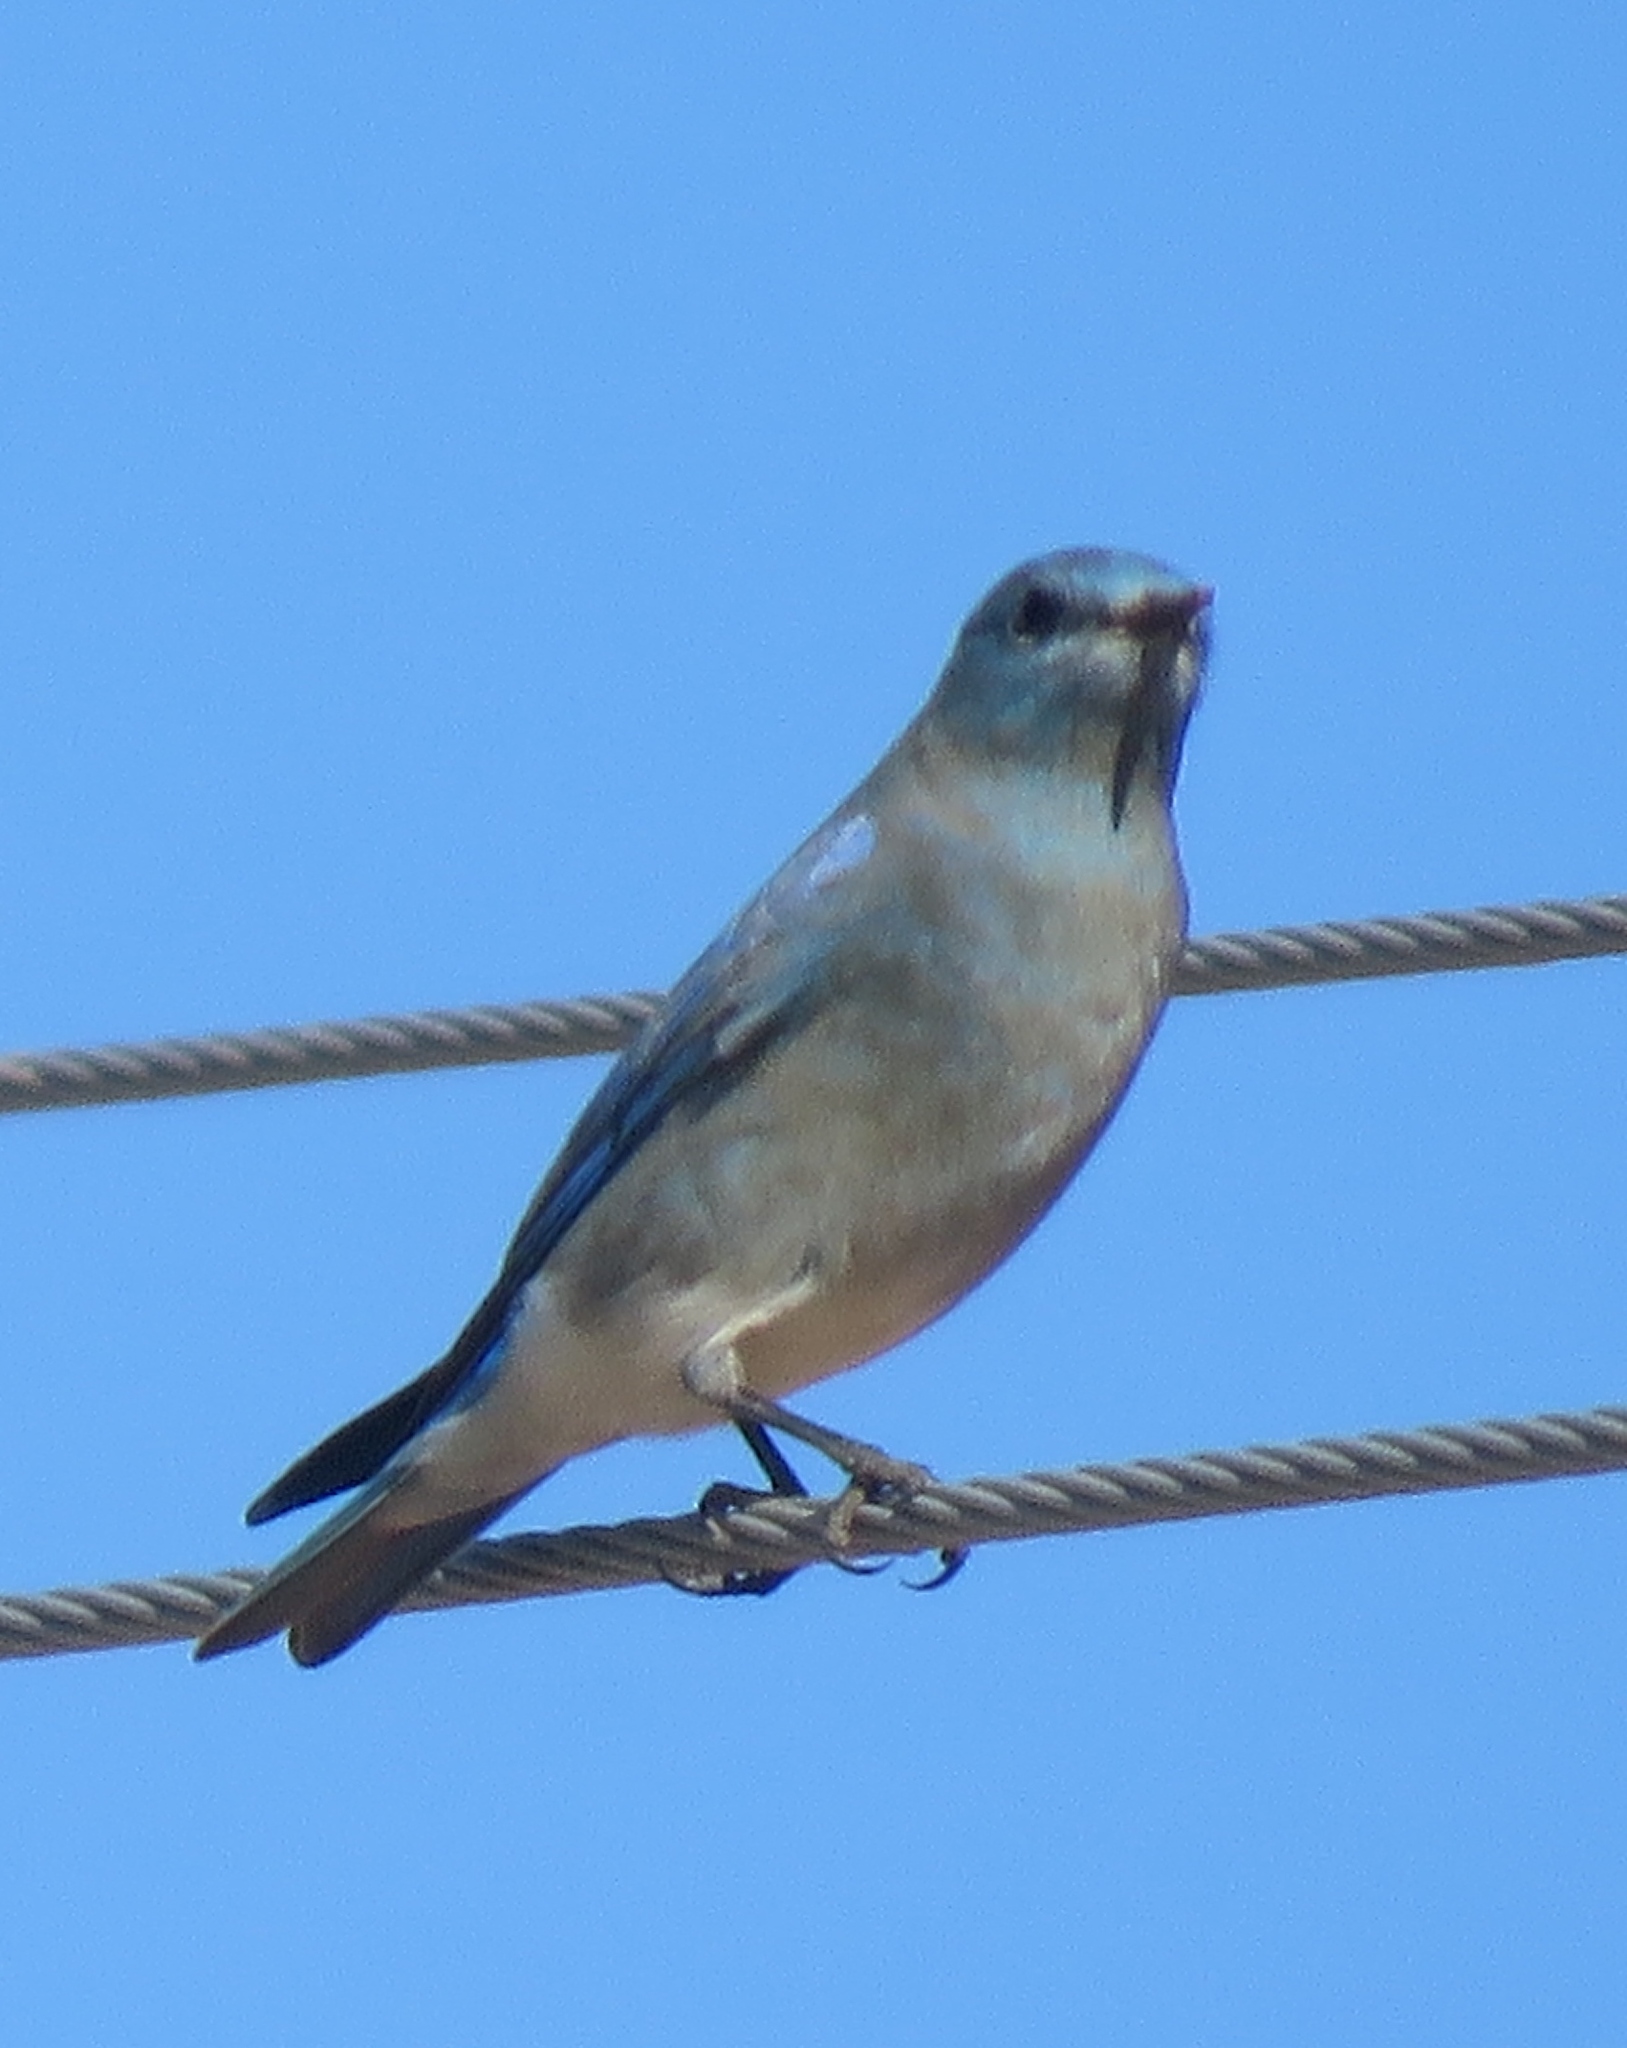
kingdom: Animalia
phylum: Chordata
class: Aves
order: Passeriformes
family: Turdidae
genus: Sialia
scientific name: Sialia currucoides
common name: Mountain bluebird
